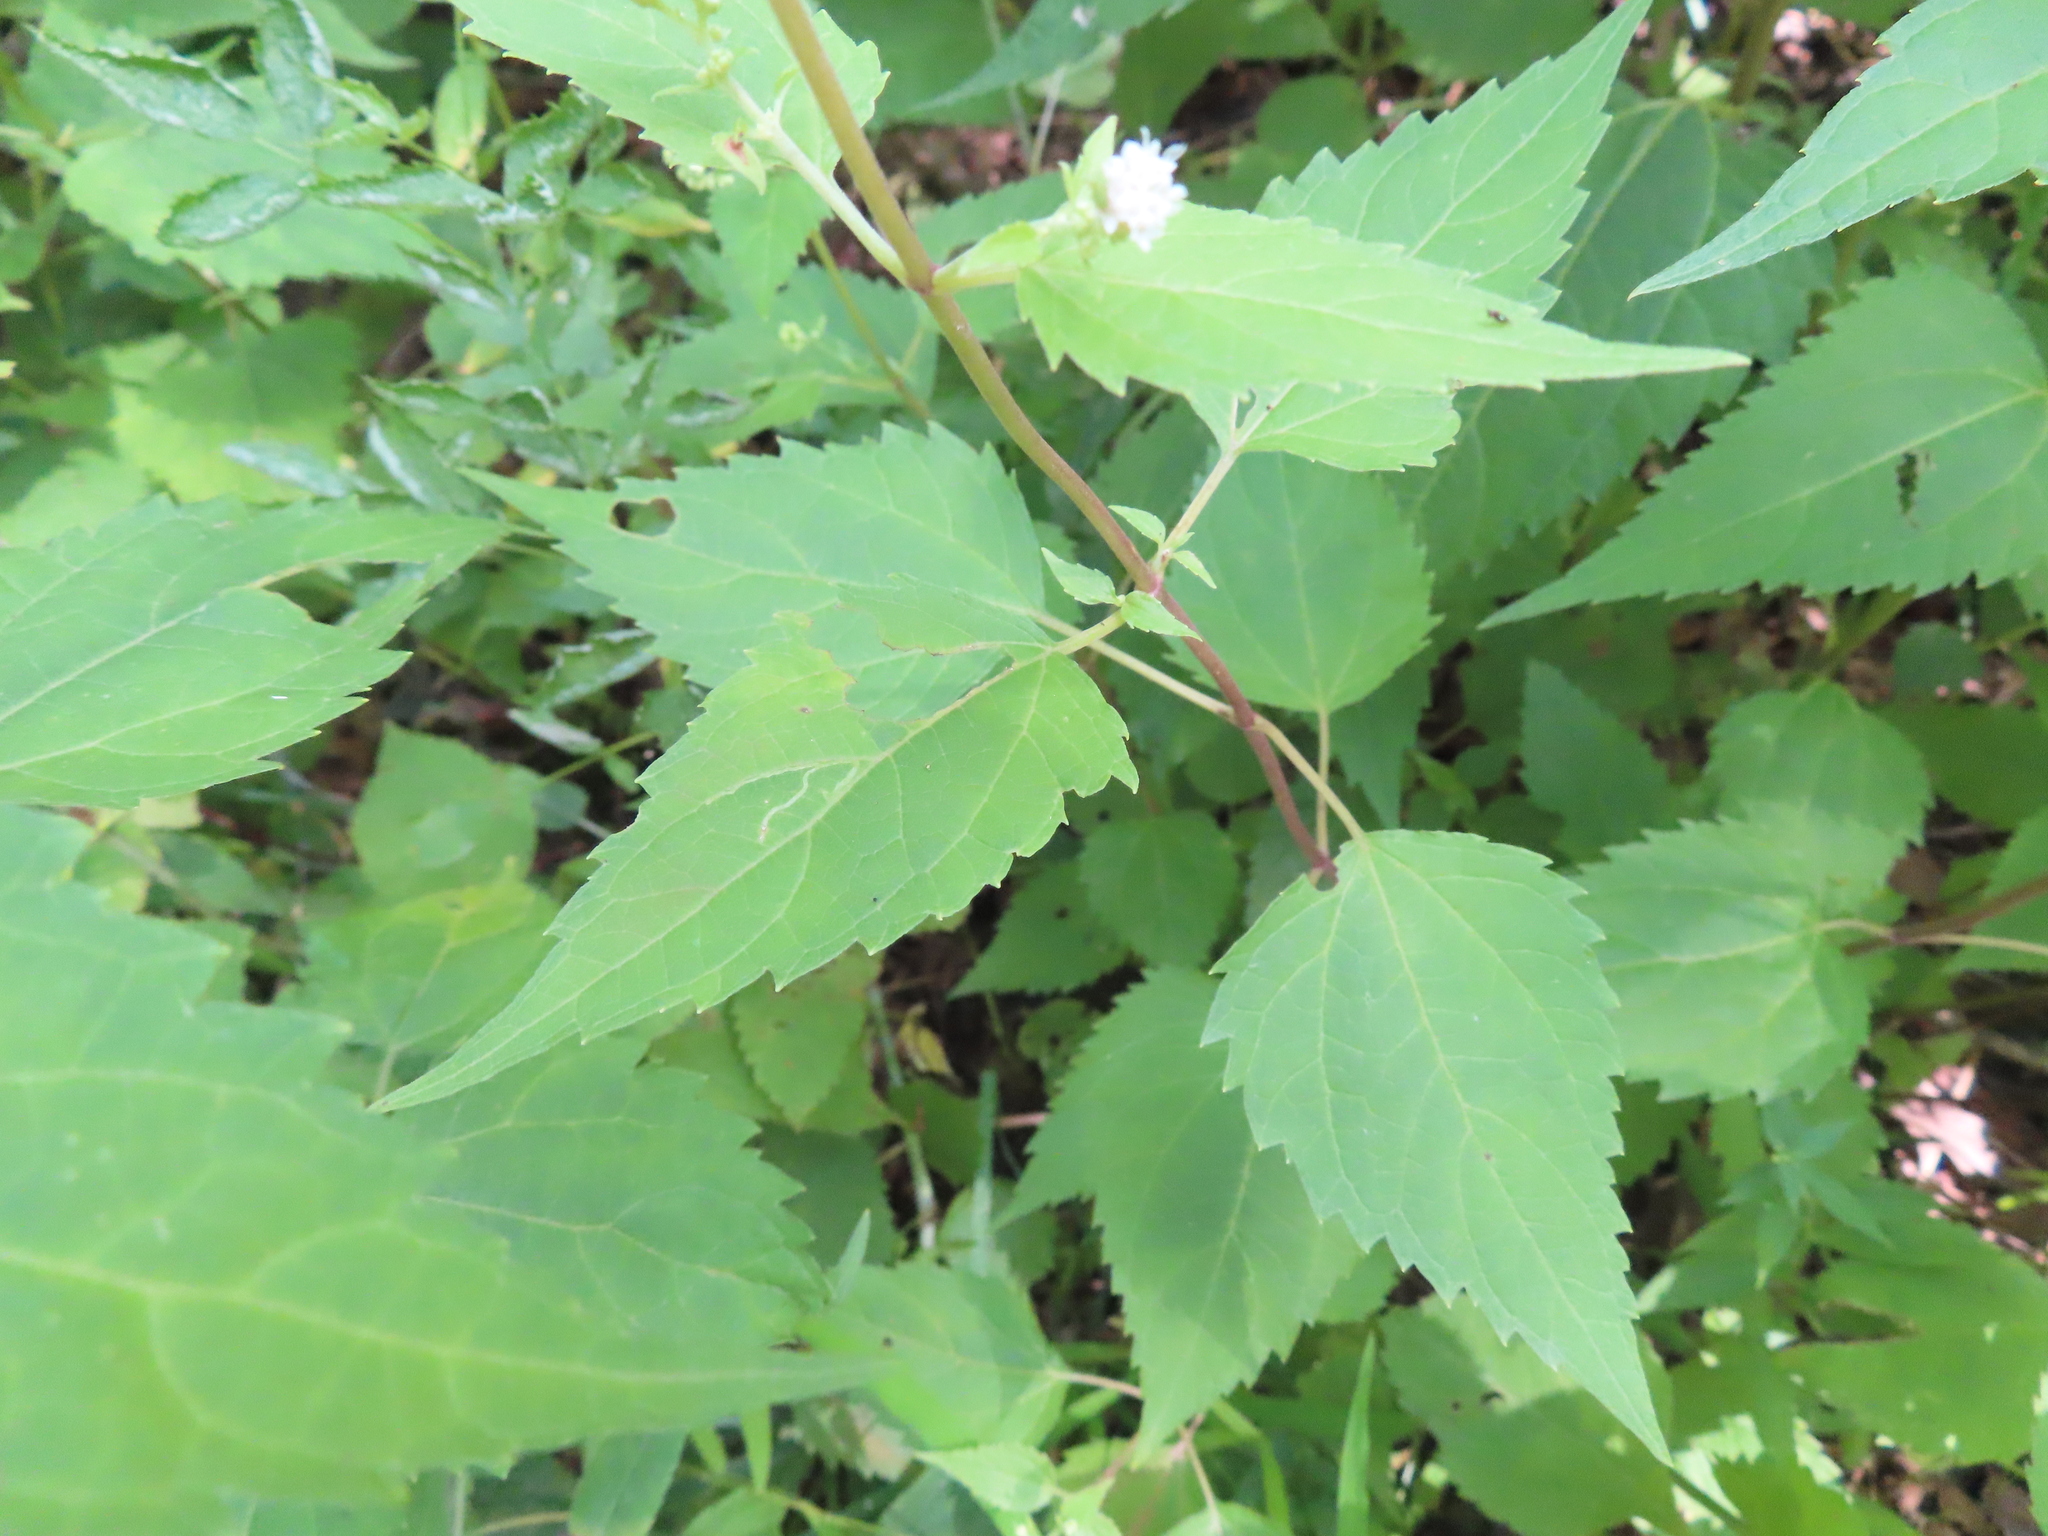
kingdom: Plantae
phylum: Tracheophyta
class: Magnoliopsida
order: Asterales
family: Asteraceae
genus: Ageratina
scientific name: Ageratina altissima
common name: White snakeroot
